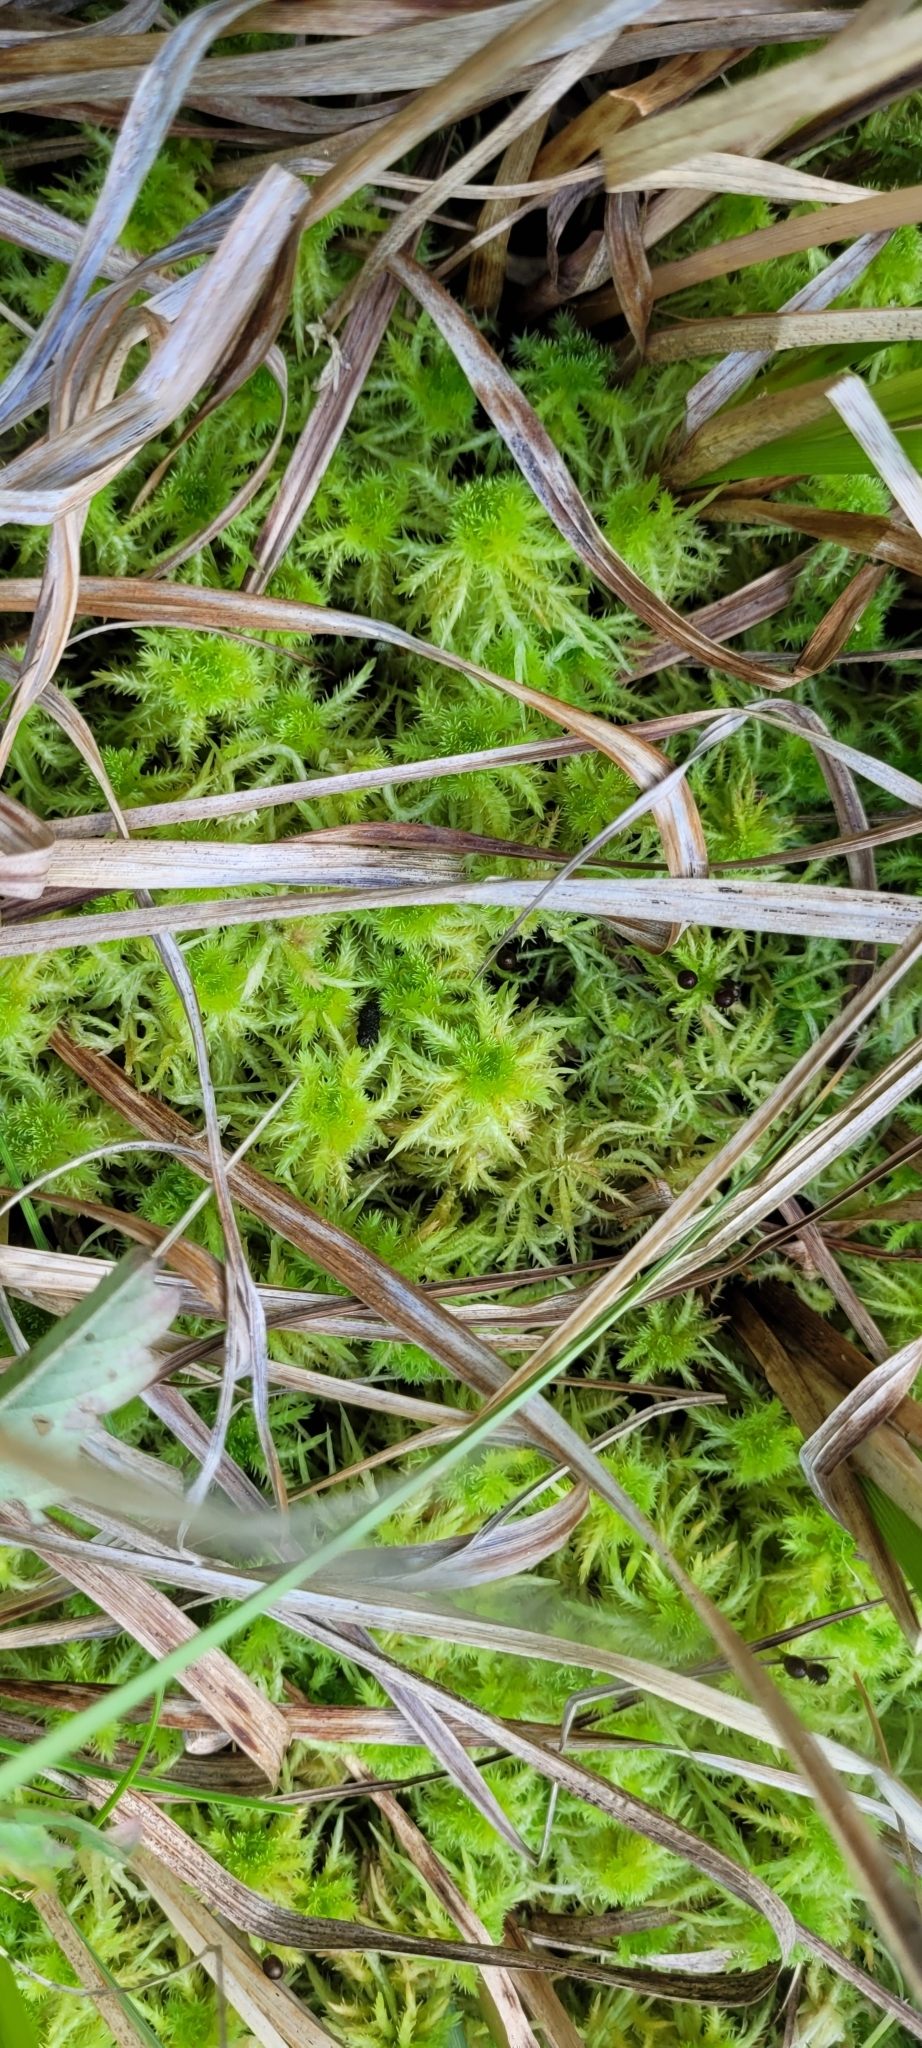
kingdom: Plantae
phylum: Bryophyta
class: Sphagnopsida
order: Sphagnales
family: Sphagnaceae
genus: Sphagnum
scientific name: Sphagnum squarrosum
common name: Shaggy peat moss
